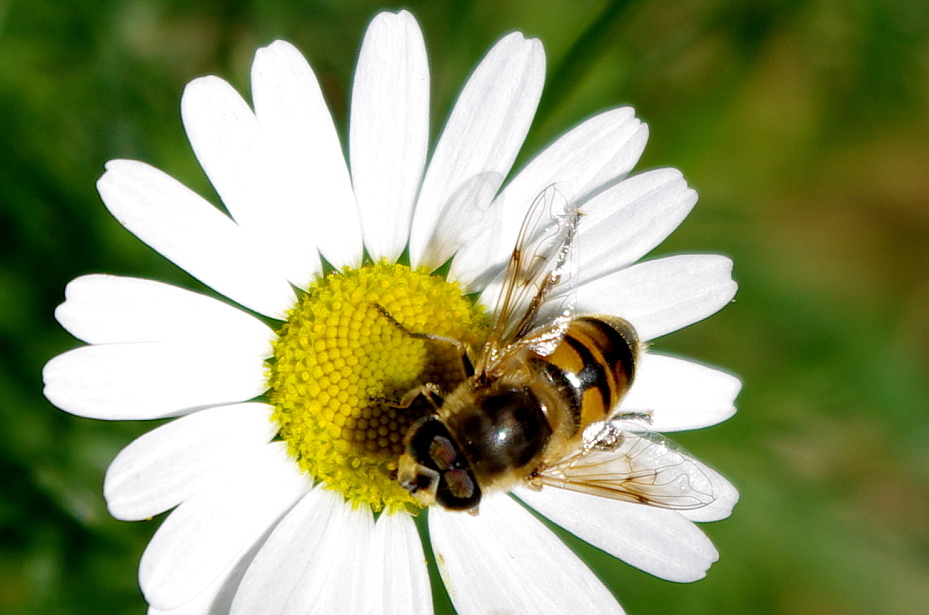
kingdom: Animalia
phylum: Arthropoda
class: Insecta
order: Diptera
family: Syrphidae
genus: Eristalis
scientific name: Eristalis tenax
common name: Drone fly
